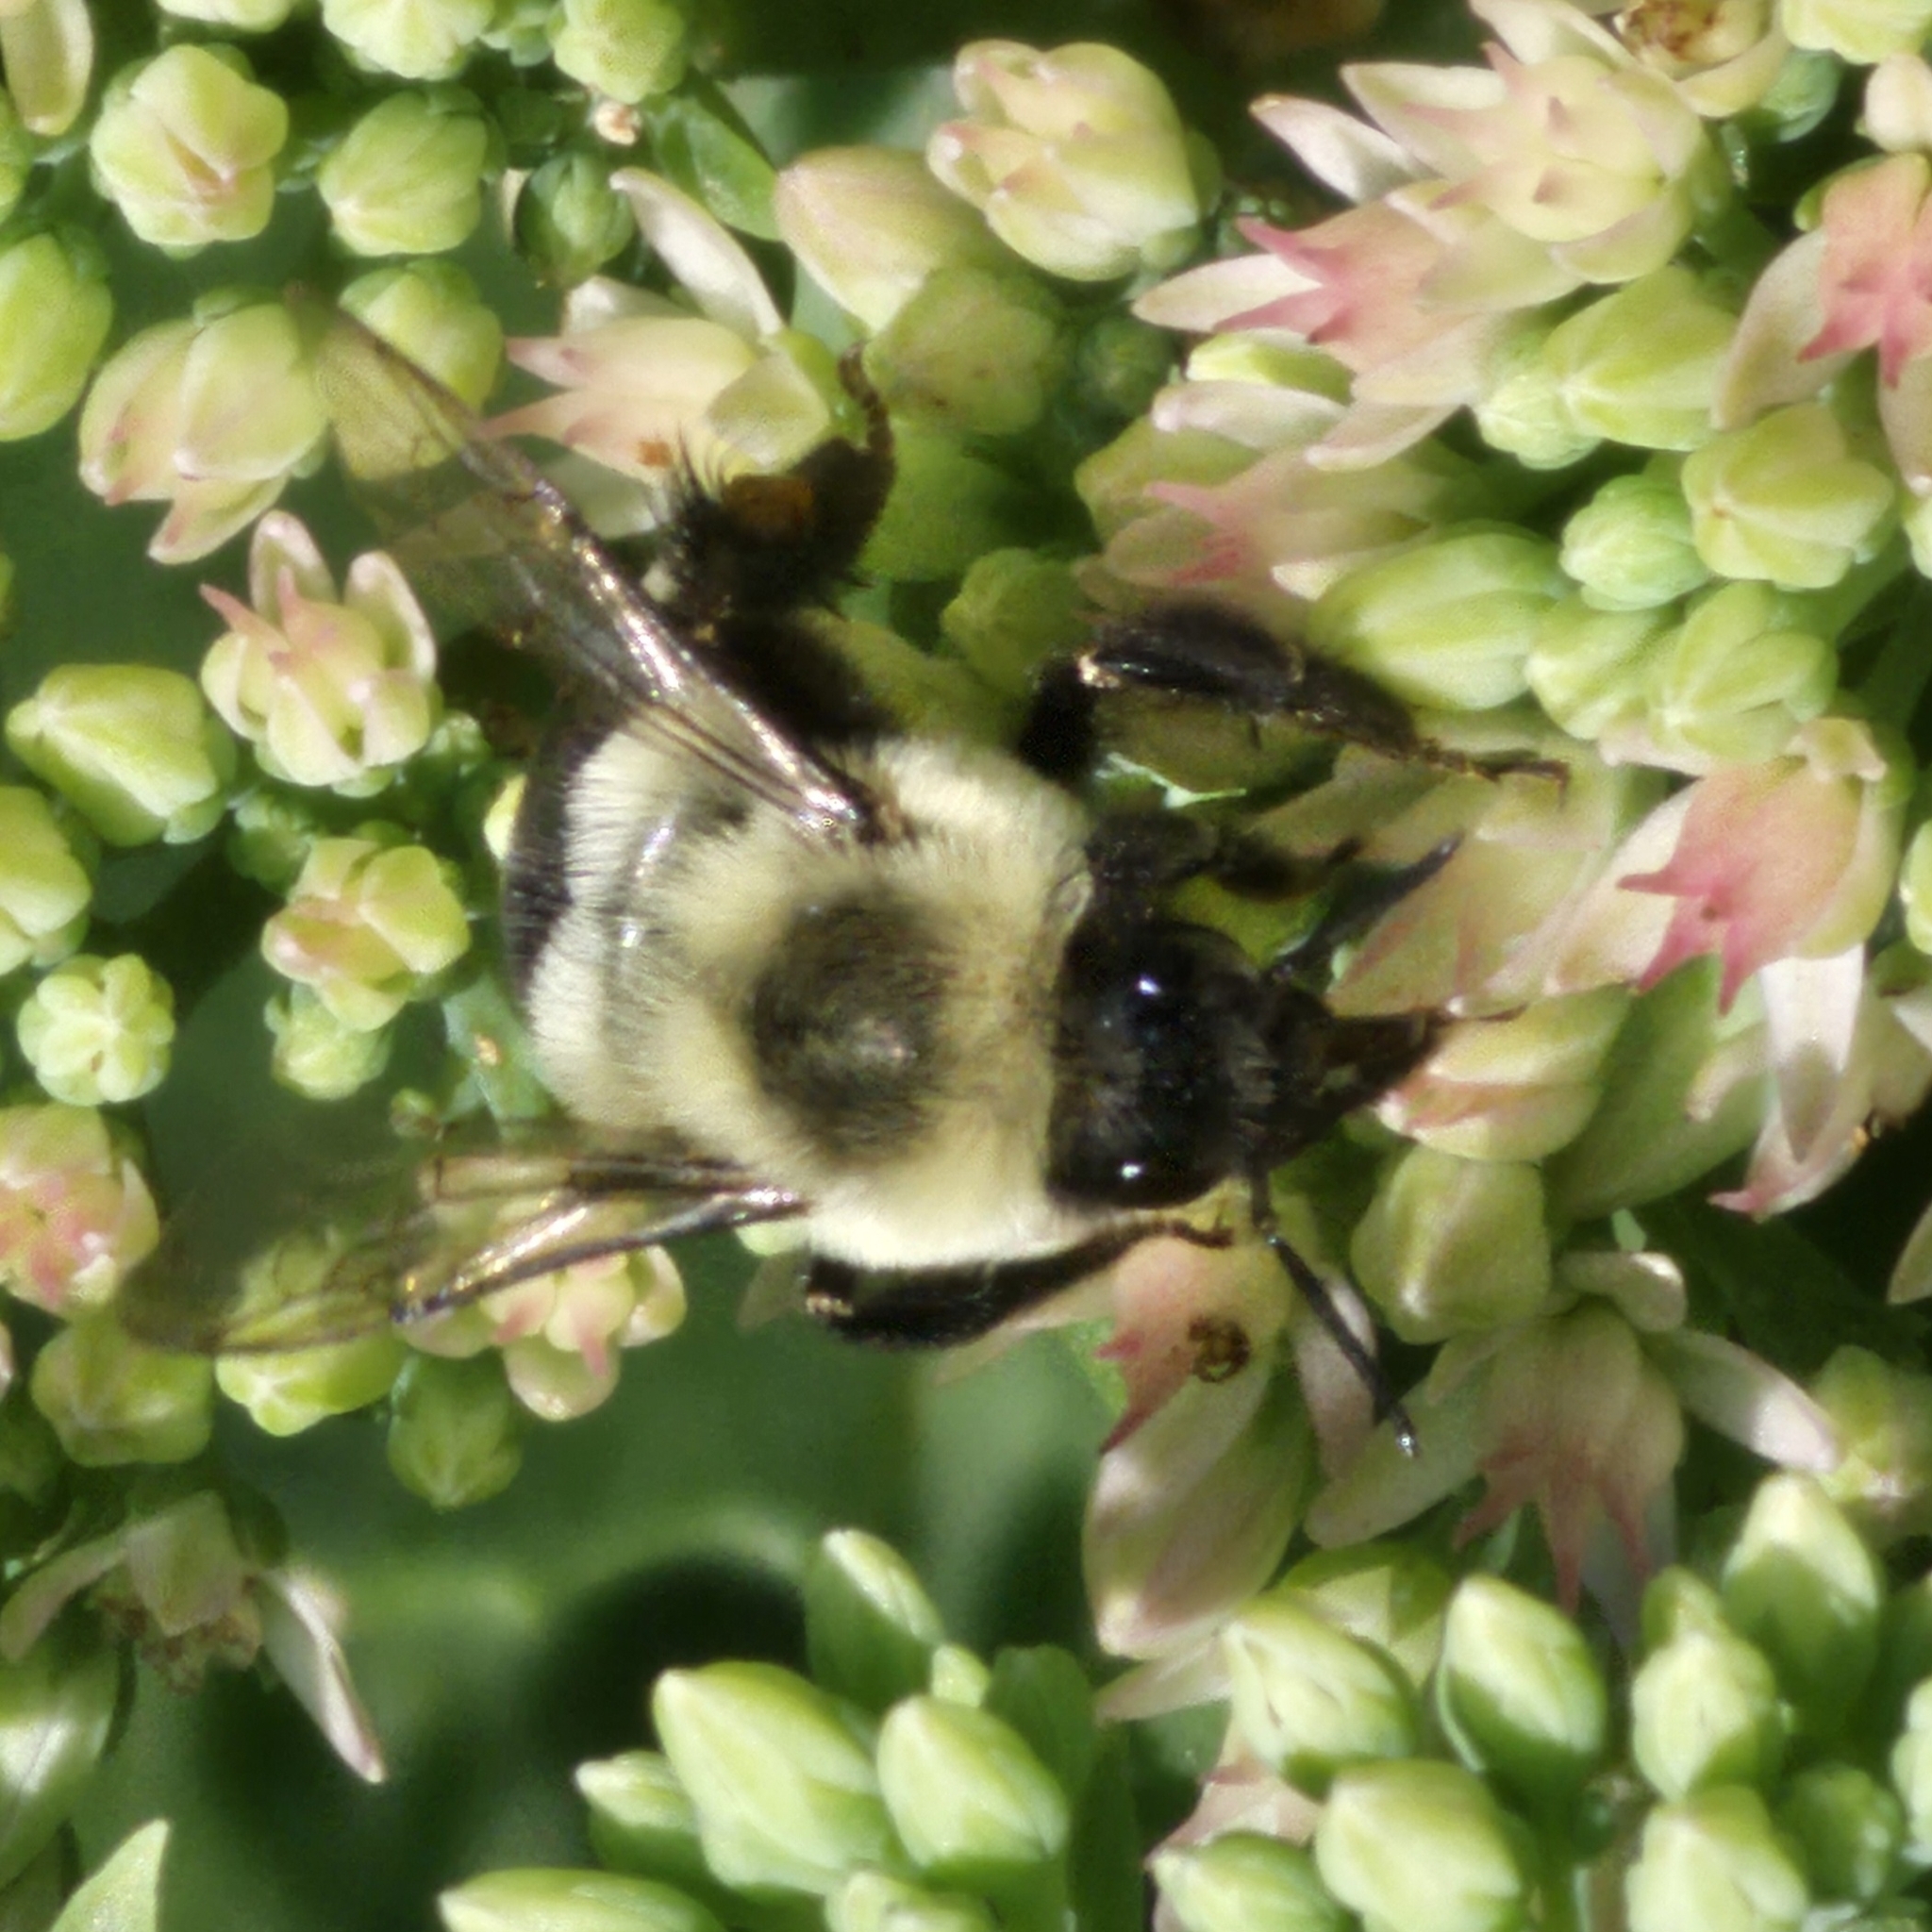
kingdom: Animalia
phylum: Arthropoda
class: Insecta
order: Hymenoptera
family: Apidae
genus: Bombus
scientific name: Bombus impatiens
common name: Common eastern bumble bee
